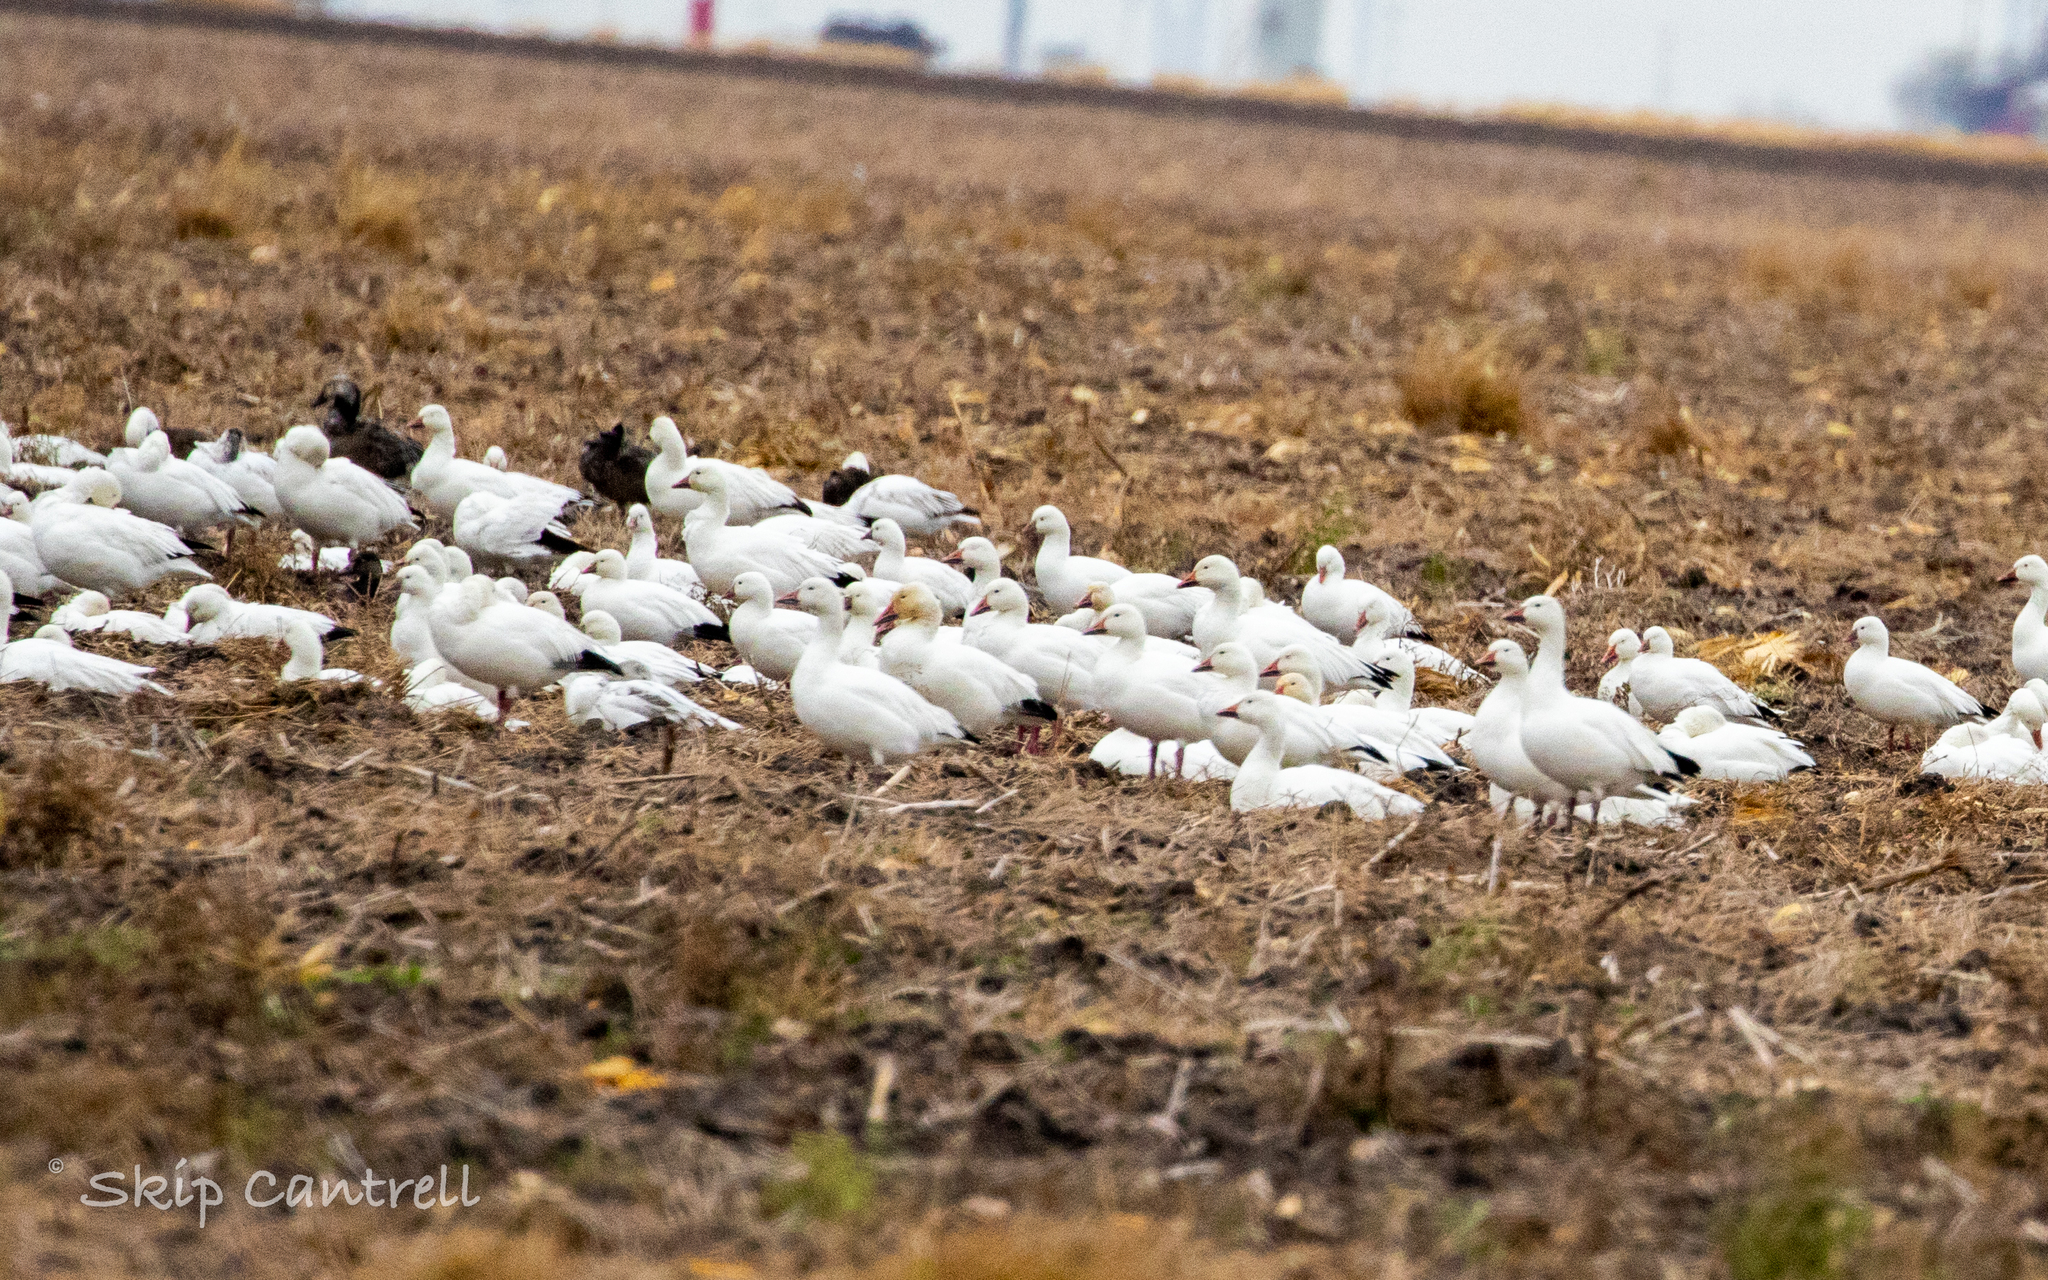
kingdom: Animalia
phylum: Chordata
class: Aves
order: Anseriformes
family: Anatidae
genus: Anser
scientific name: Anser caerulescens
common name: Snow goose
